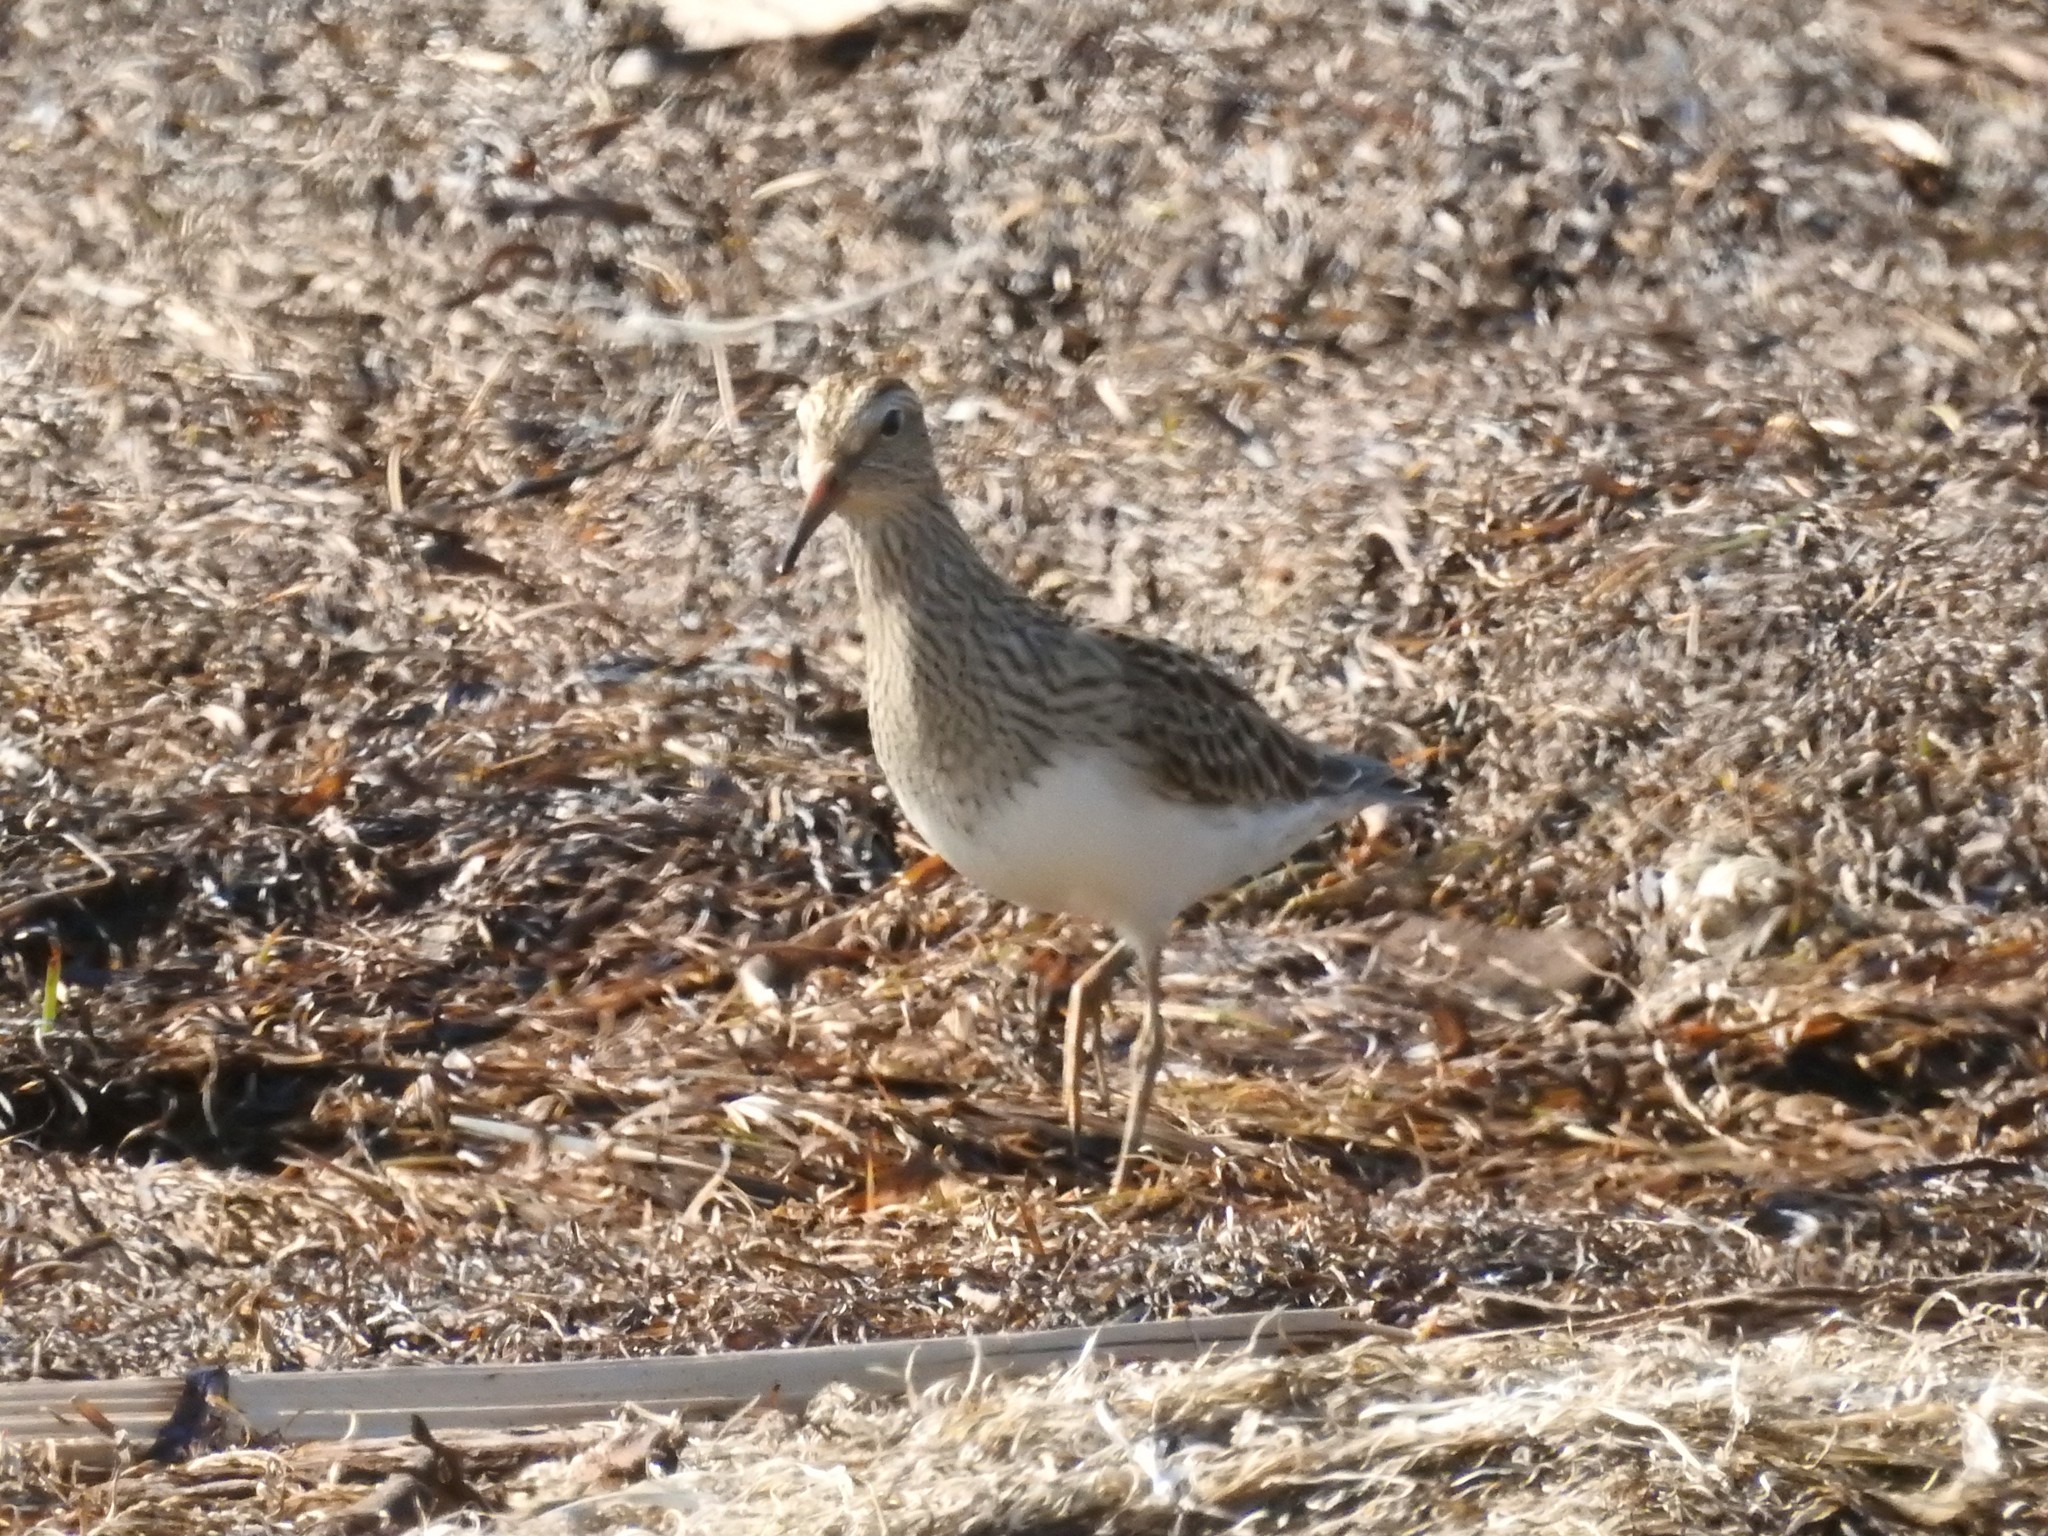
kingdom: Animalia
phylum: Chordata
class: Aves
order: Charadriiformes
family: Scolopacidae
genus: Calidris
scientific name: Calidris melanotos
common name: Pectoral sandpiper
